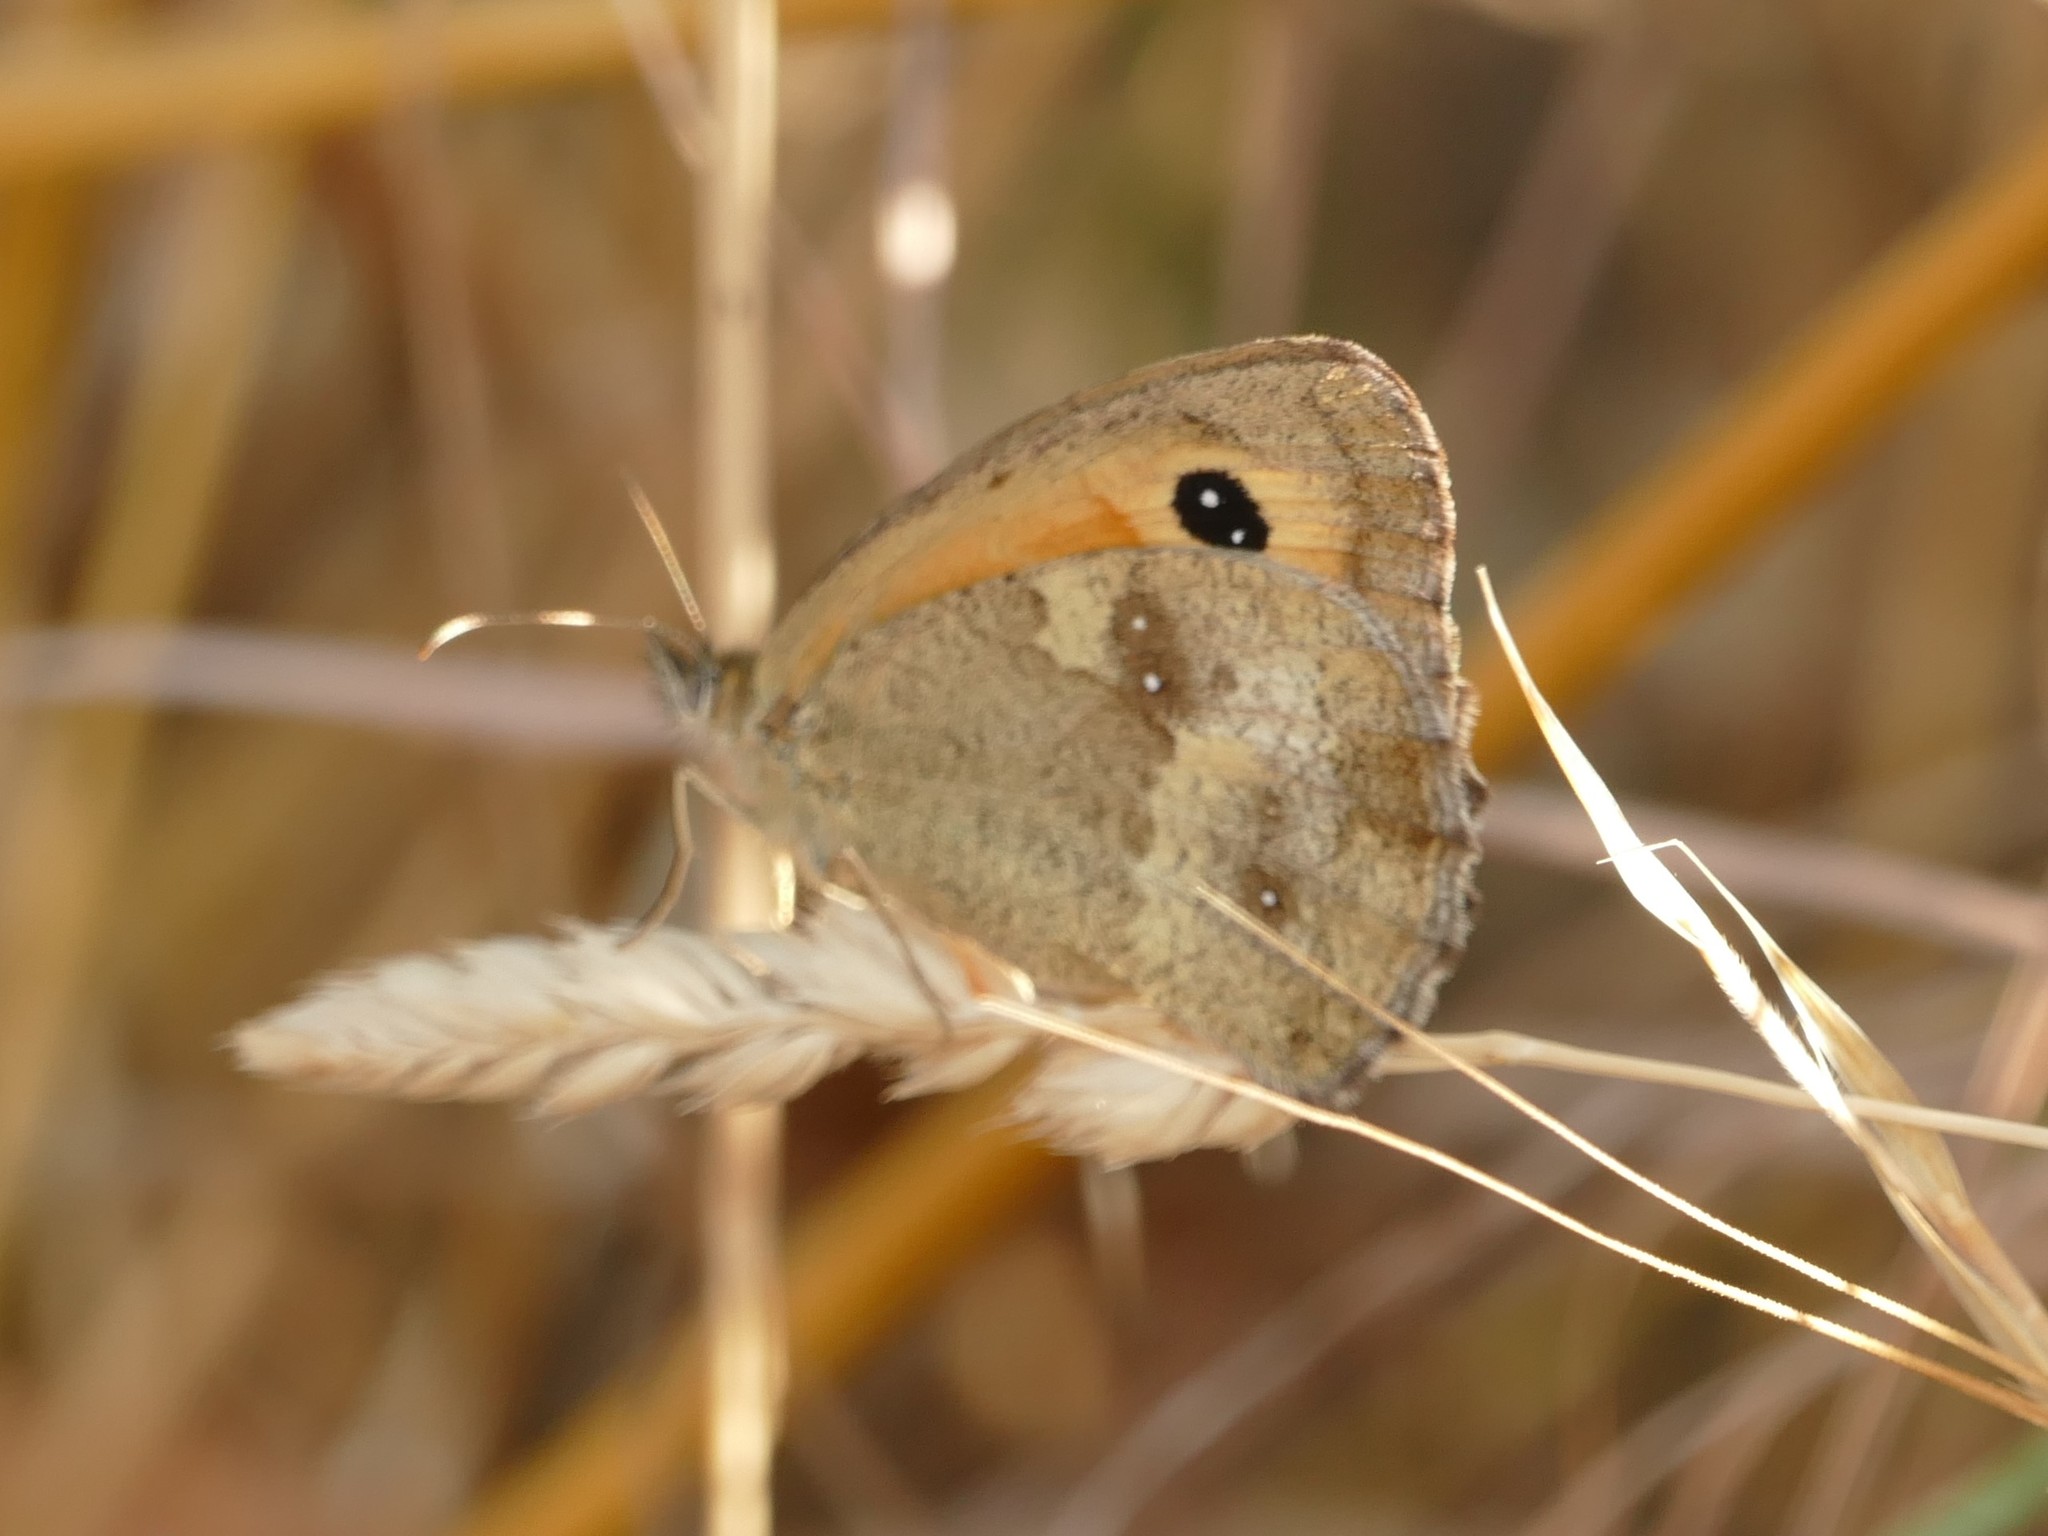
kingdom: Animalia
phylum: Arthropoda
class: Insecta
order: Lepidoptera
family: Nymphalidae
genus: Pyronia
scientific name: Pyronia tithonus
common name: Gatekeeper
